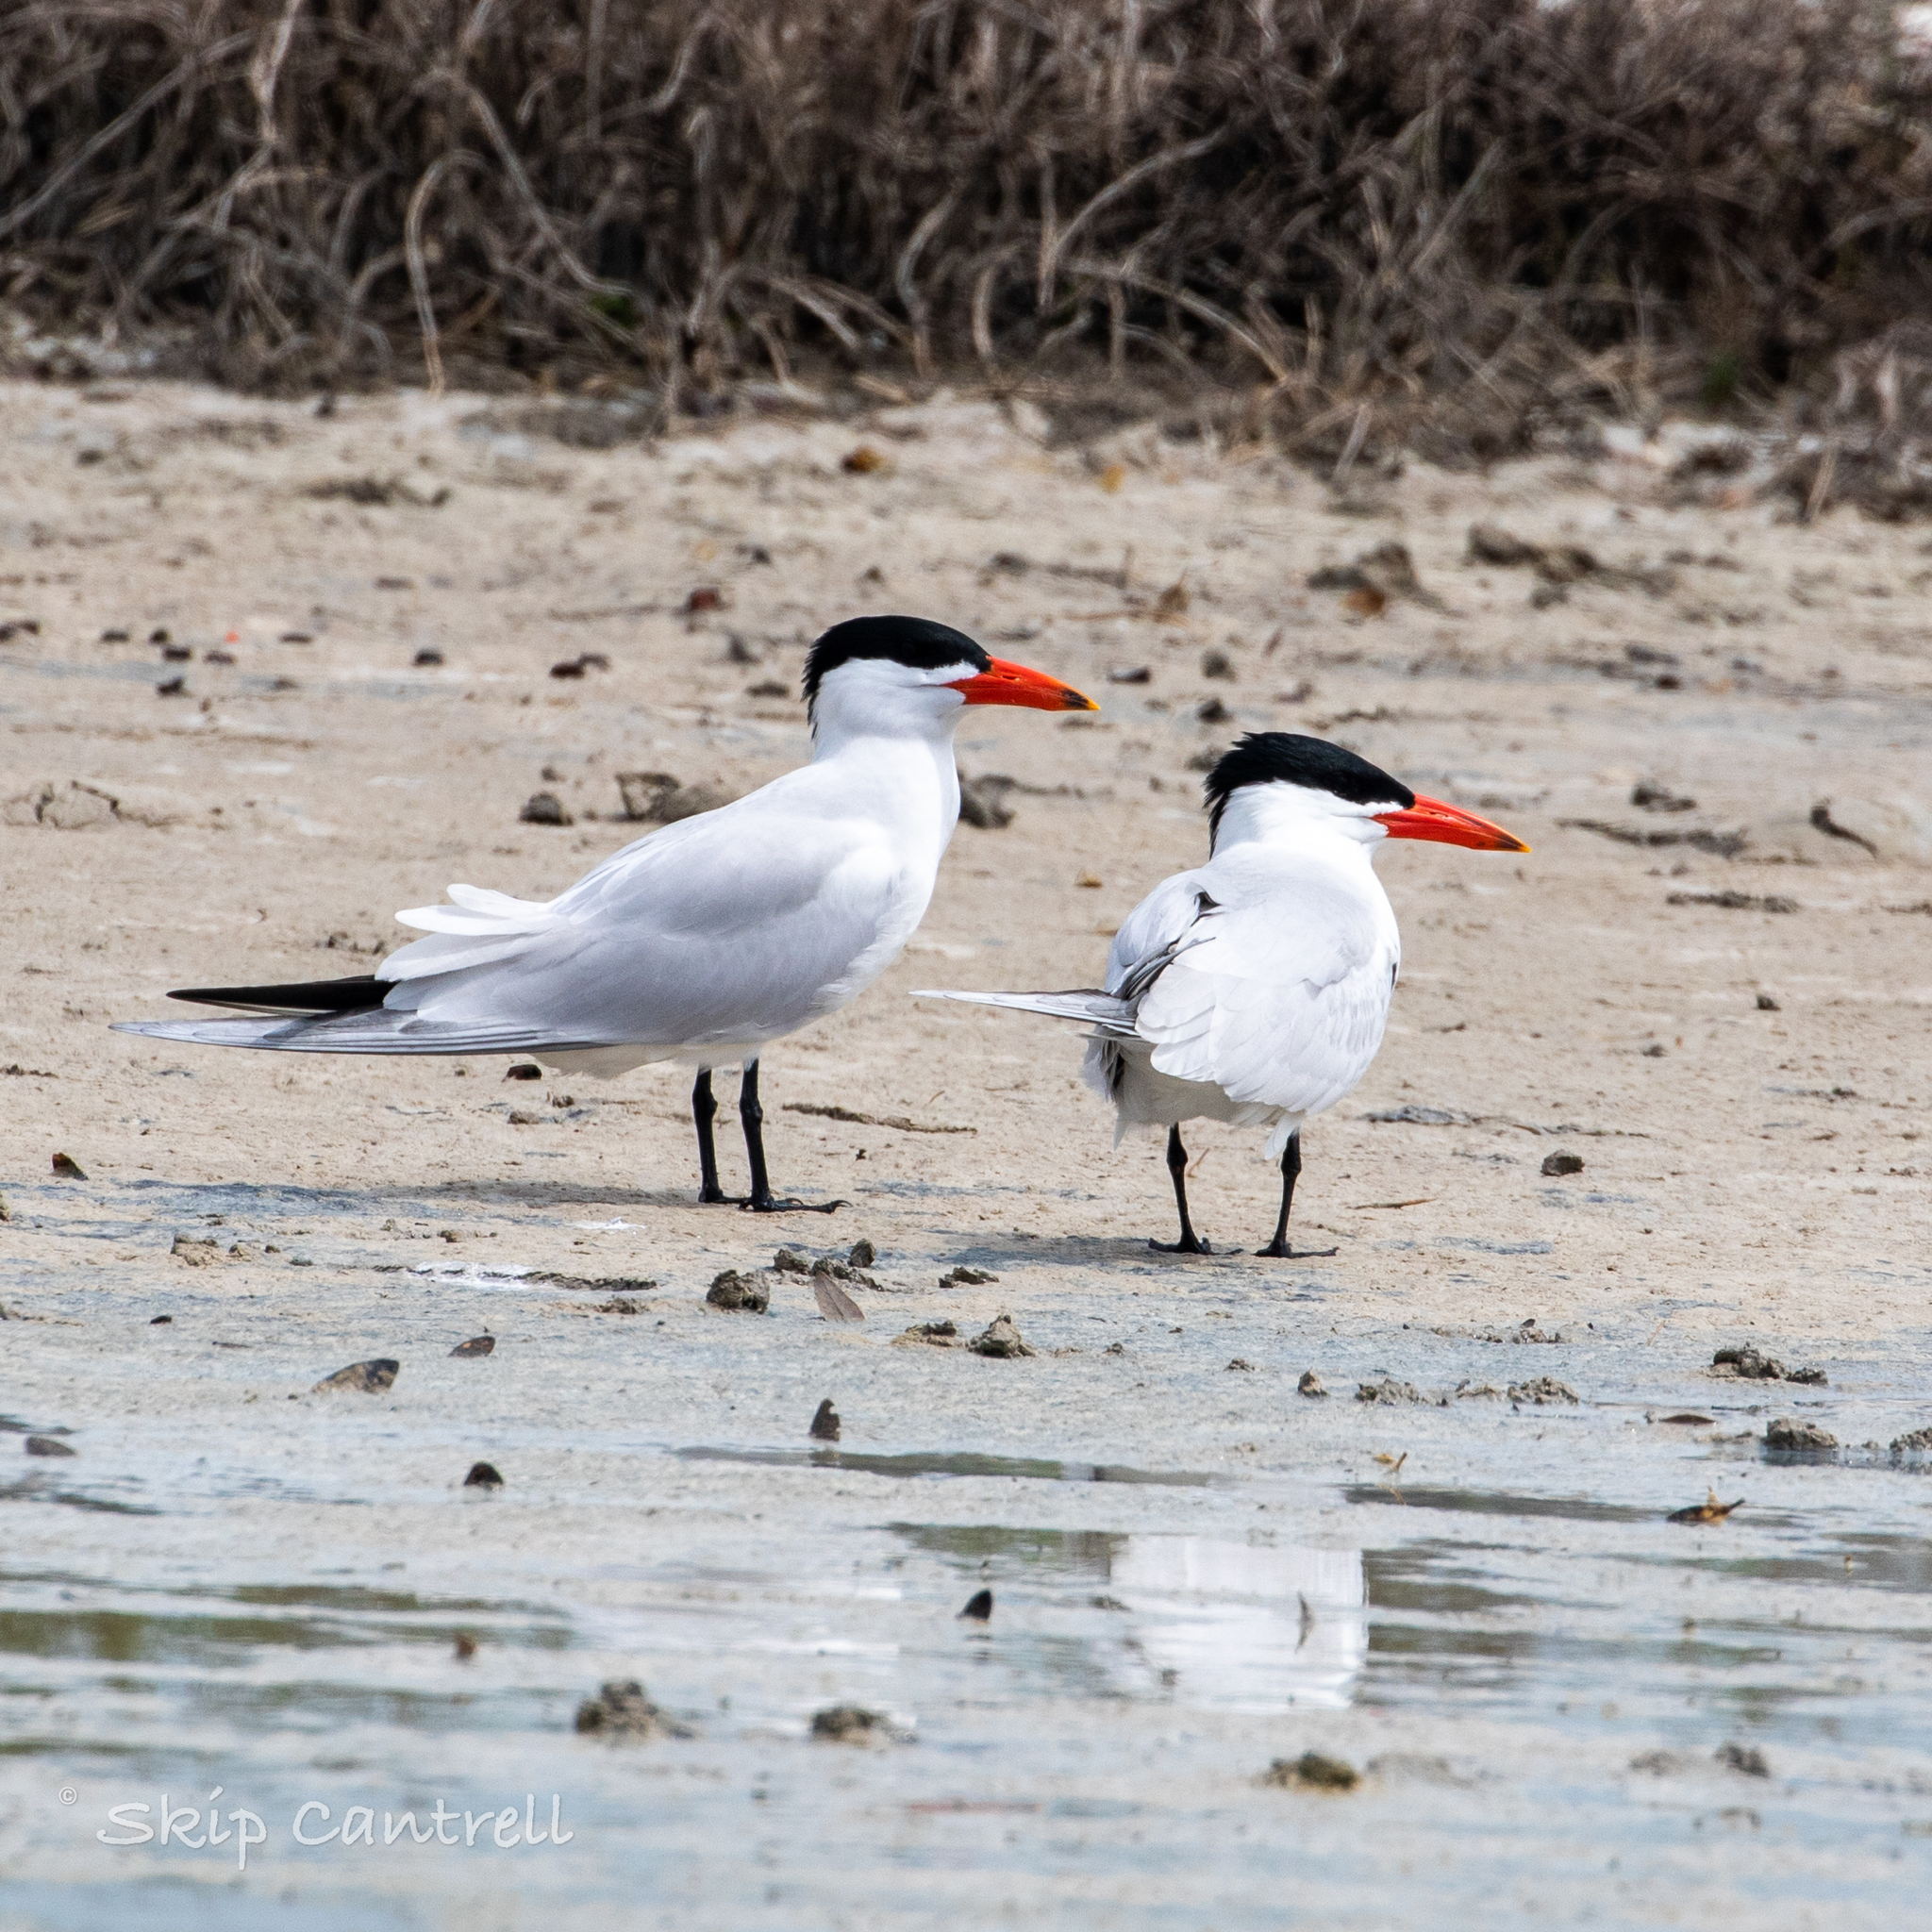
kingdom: Animalia
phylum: Chordata
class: Aves
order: Charadriiformes
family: Laridae
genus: Hydroprogne
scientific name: Hydroprogne caspia
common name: Caspian tern
